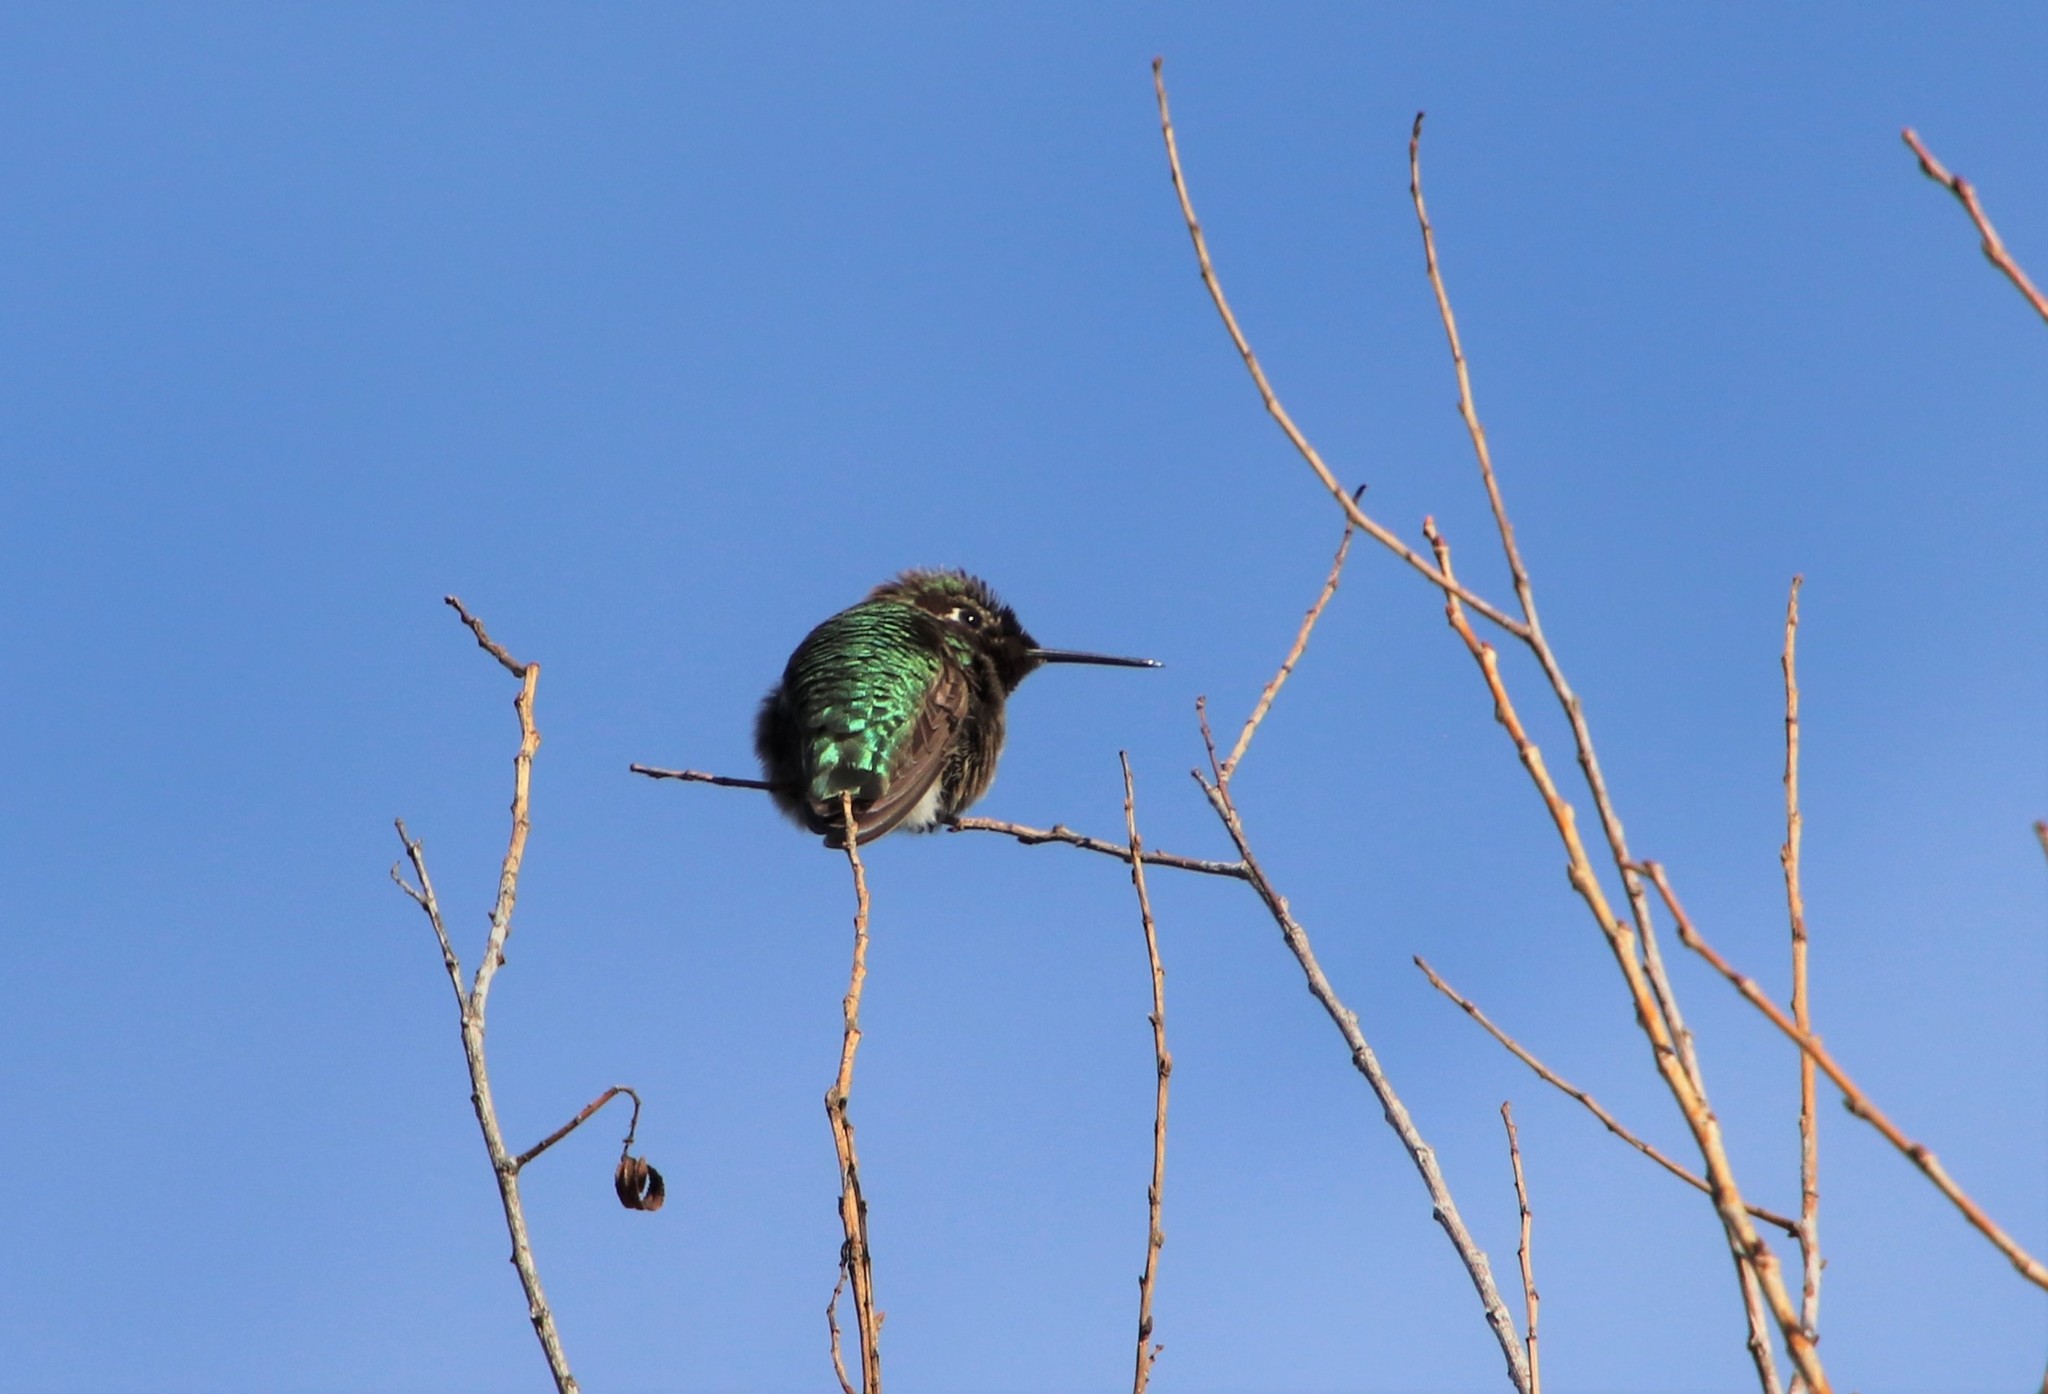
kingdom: Animalia
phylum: Chordata
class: Aves
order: Apodiformes
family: Trochilidae
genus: Calypte
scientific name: Calypte anna
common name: Anna's hummingbird
